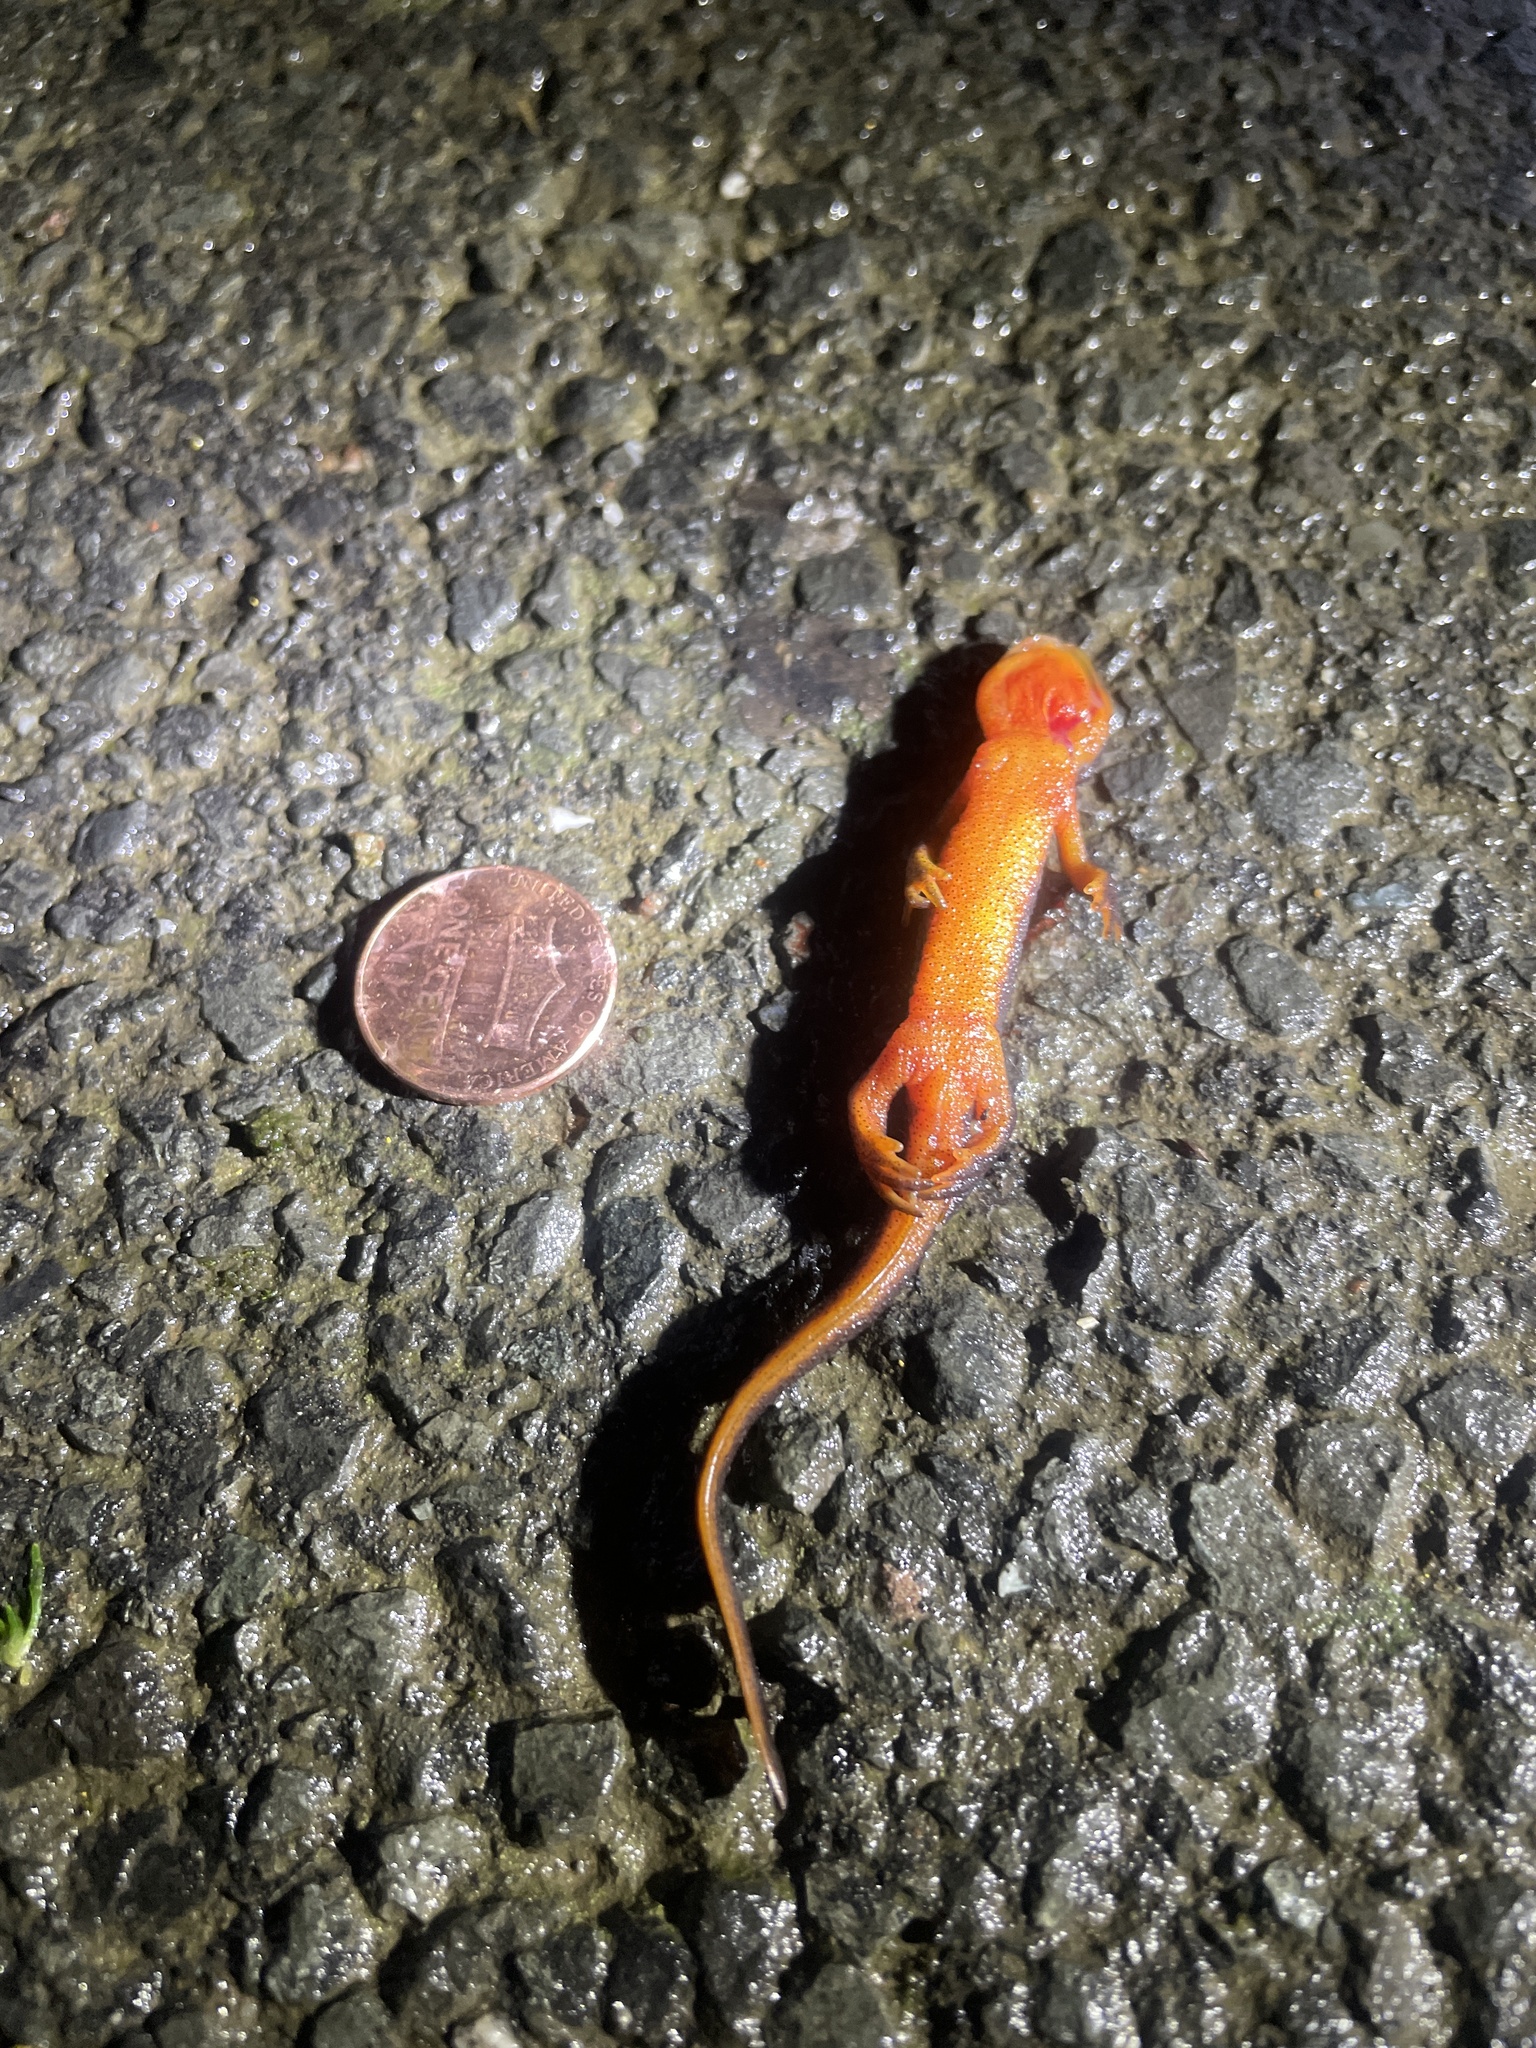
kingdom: Animalia
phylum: Chordata
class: Amphibia
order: Caudata
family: Salamandridae
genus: Taricha
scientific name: Taricha
